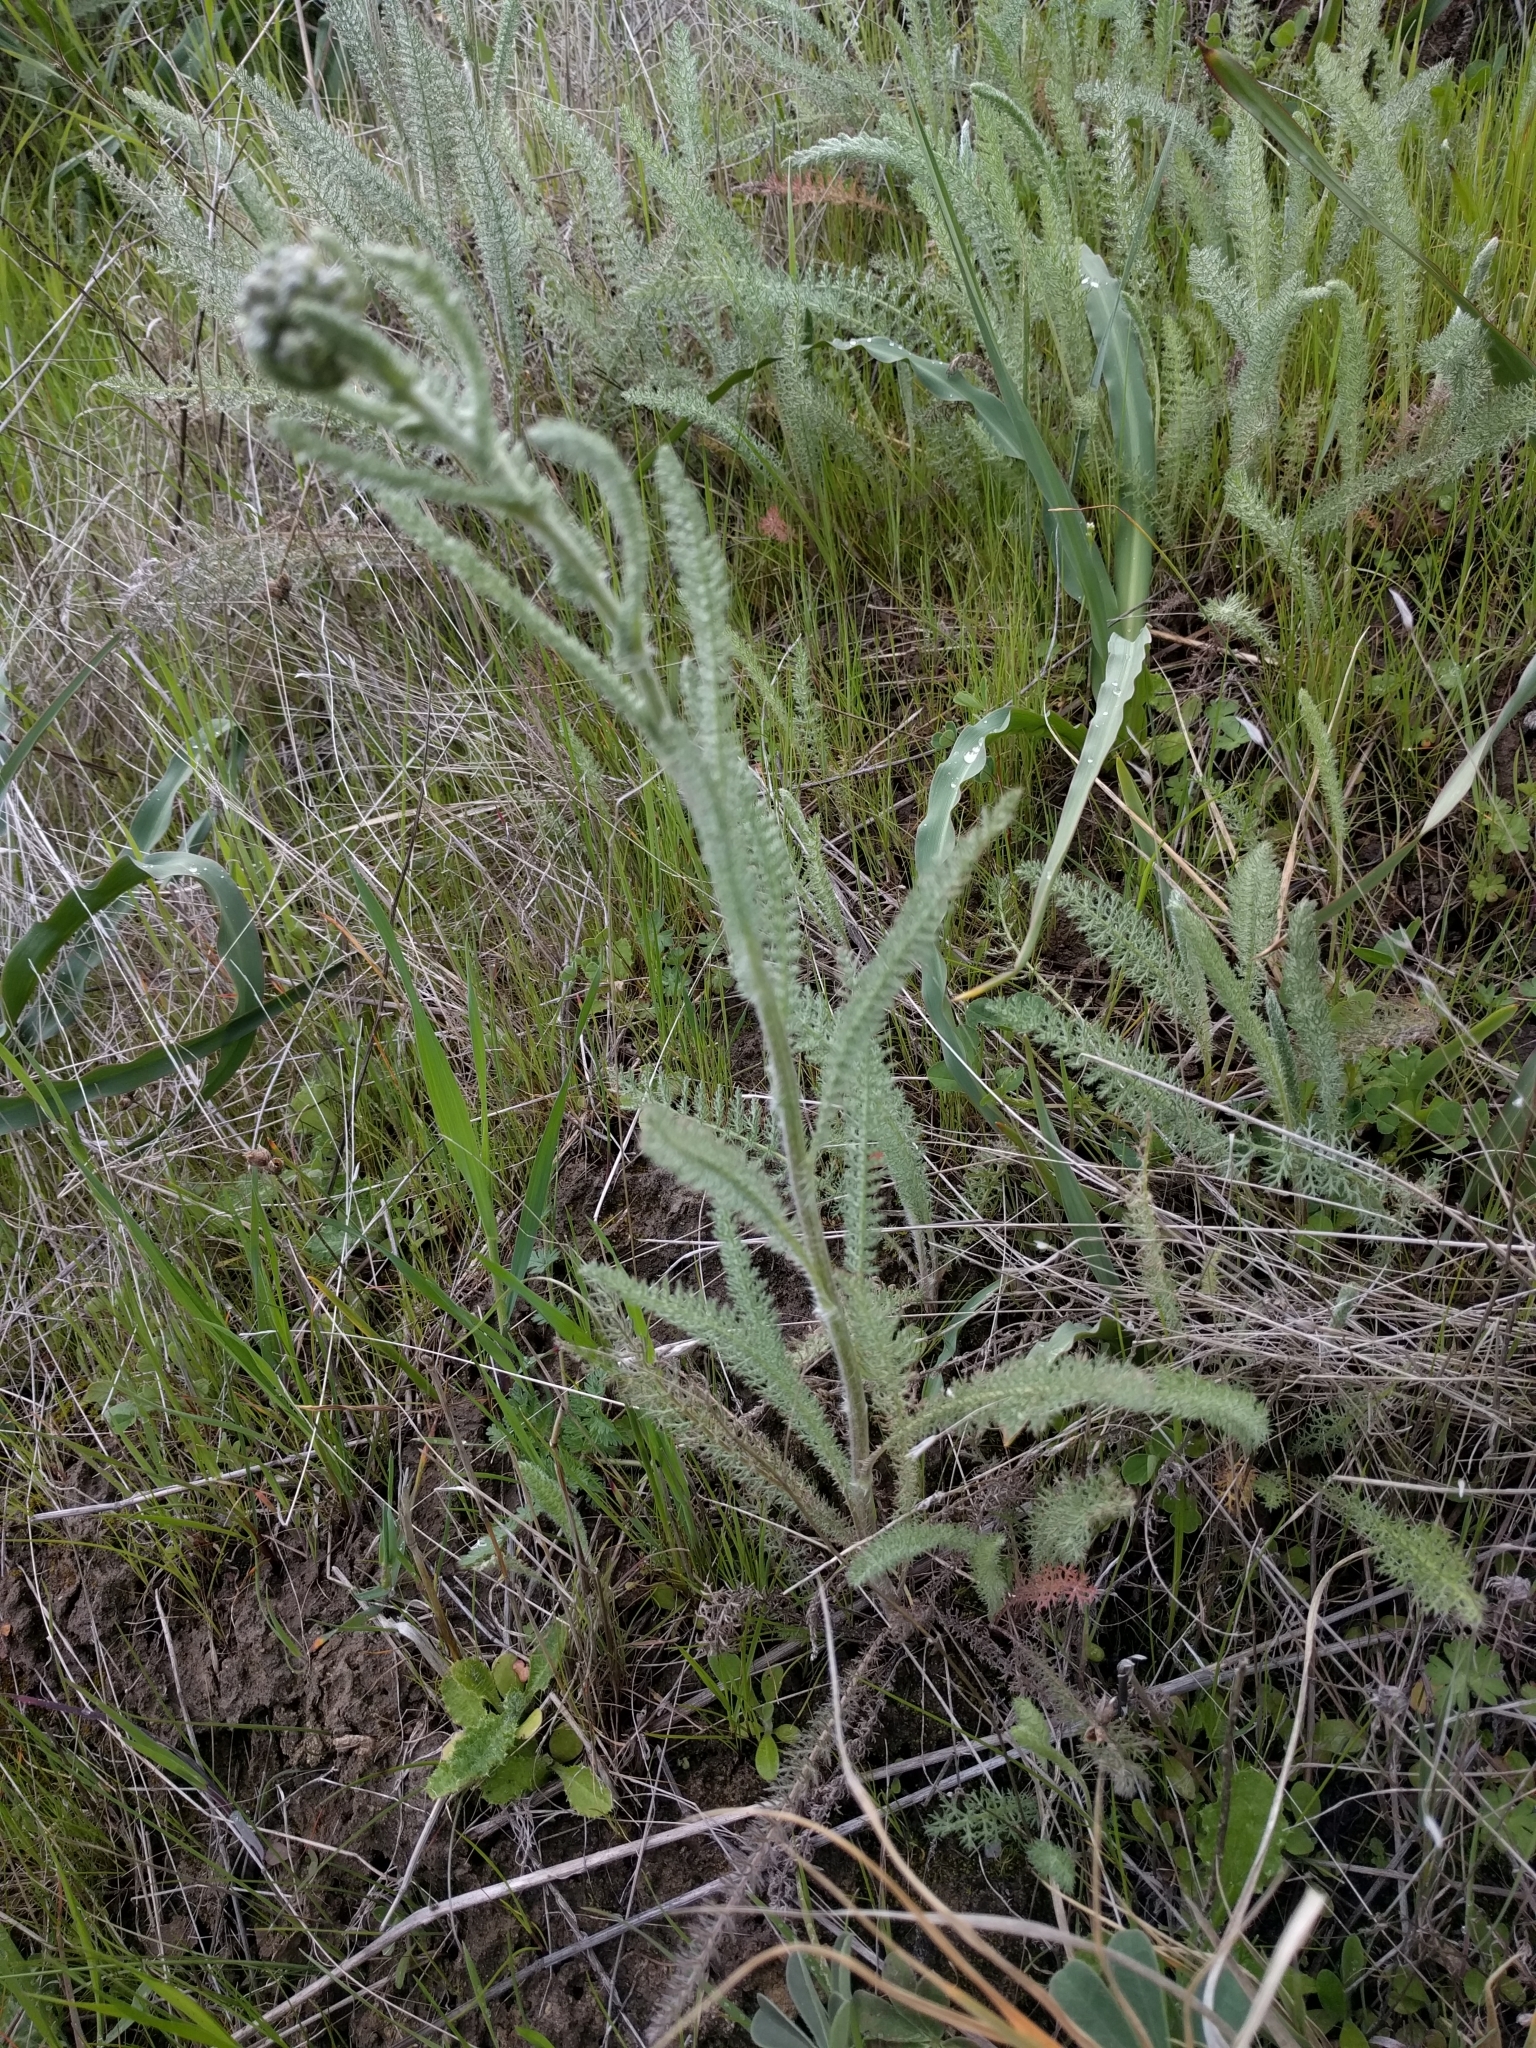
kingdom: Plantae
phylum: Tracheophyta
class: Magnoliopsida
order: Asterales
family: Asteraceae
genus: Achillea
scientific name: Achillea millefolium
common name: Yarrow
